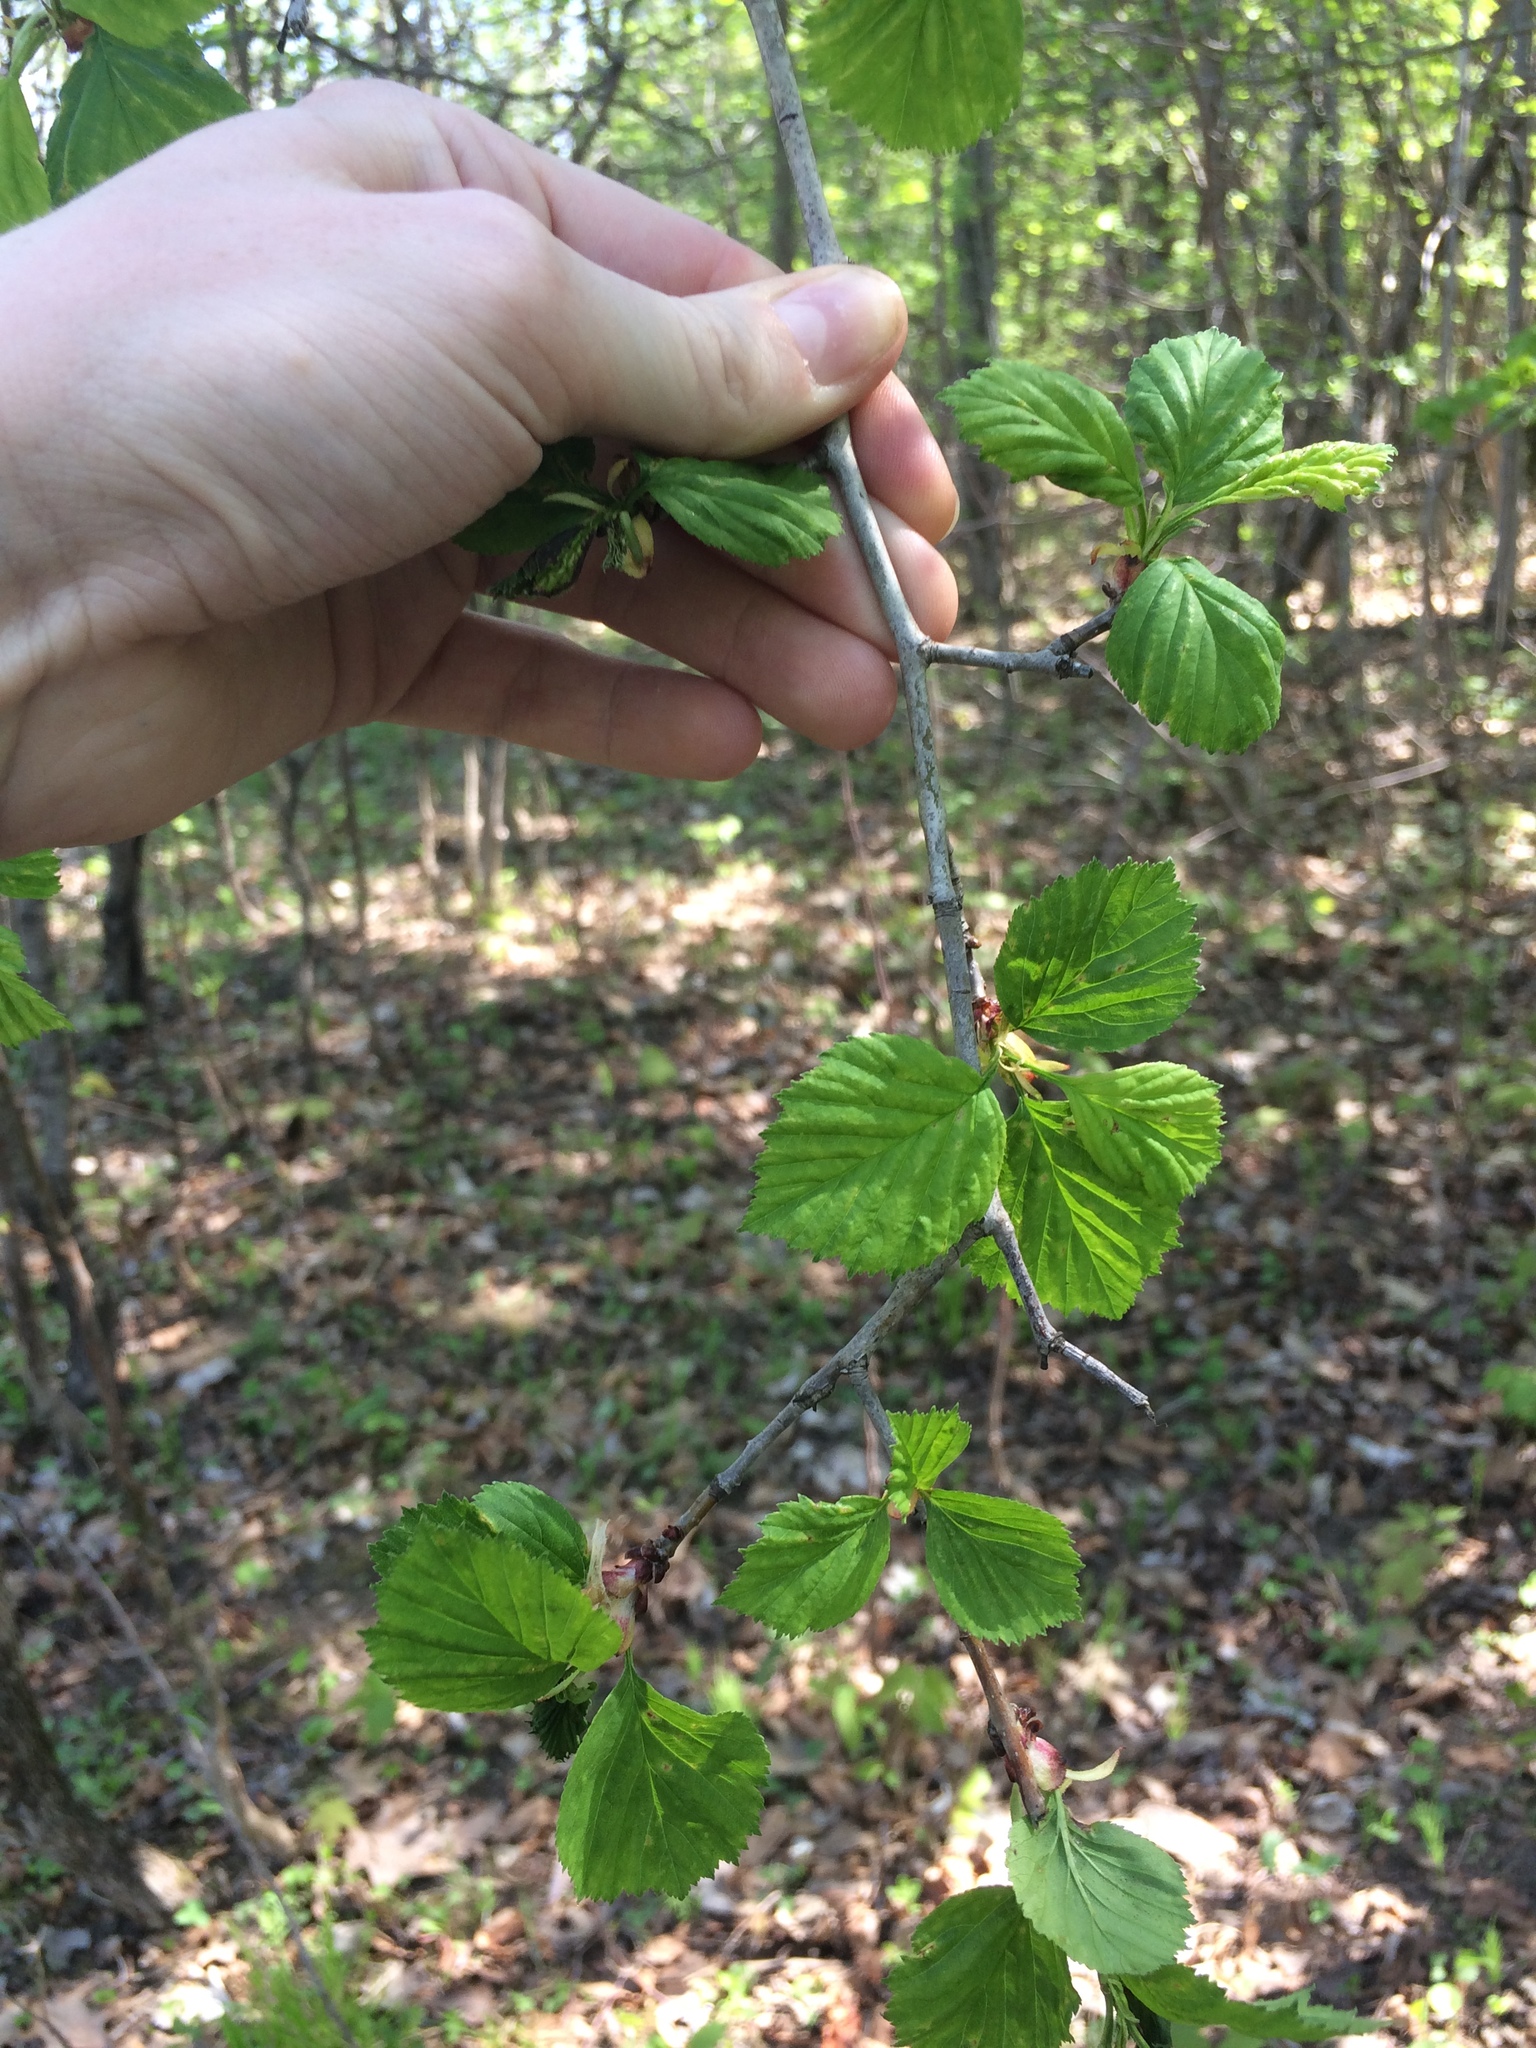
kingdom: Plantae
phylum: Tracheophyta
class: Magnoliopsida
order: Rosales
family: Rosaceae
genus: Crataegus
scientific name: Crataegus suborbiculata
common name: Caughnawaga hawthorn
